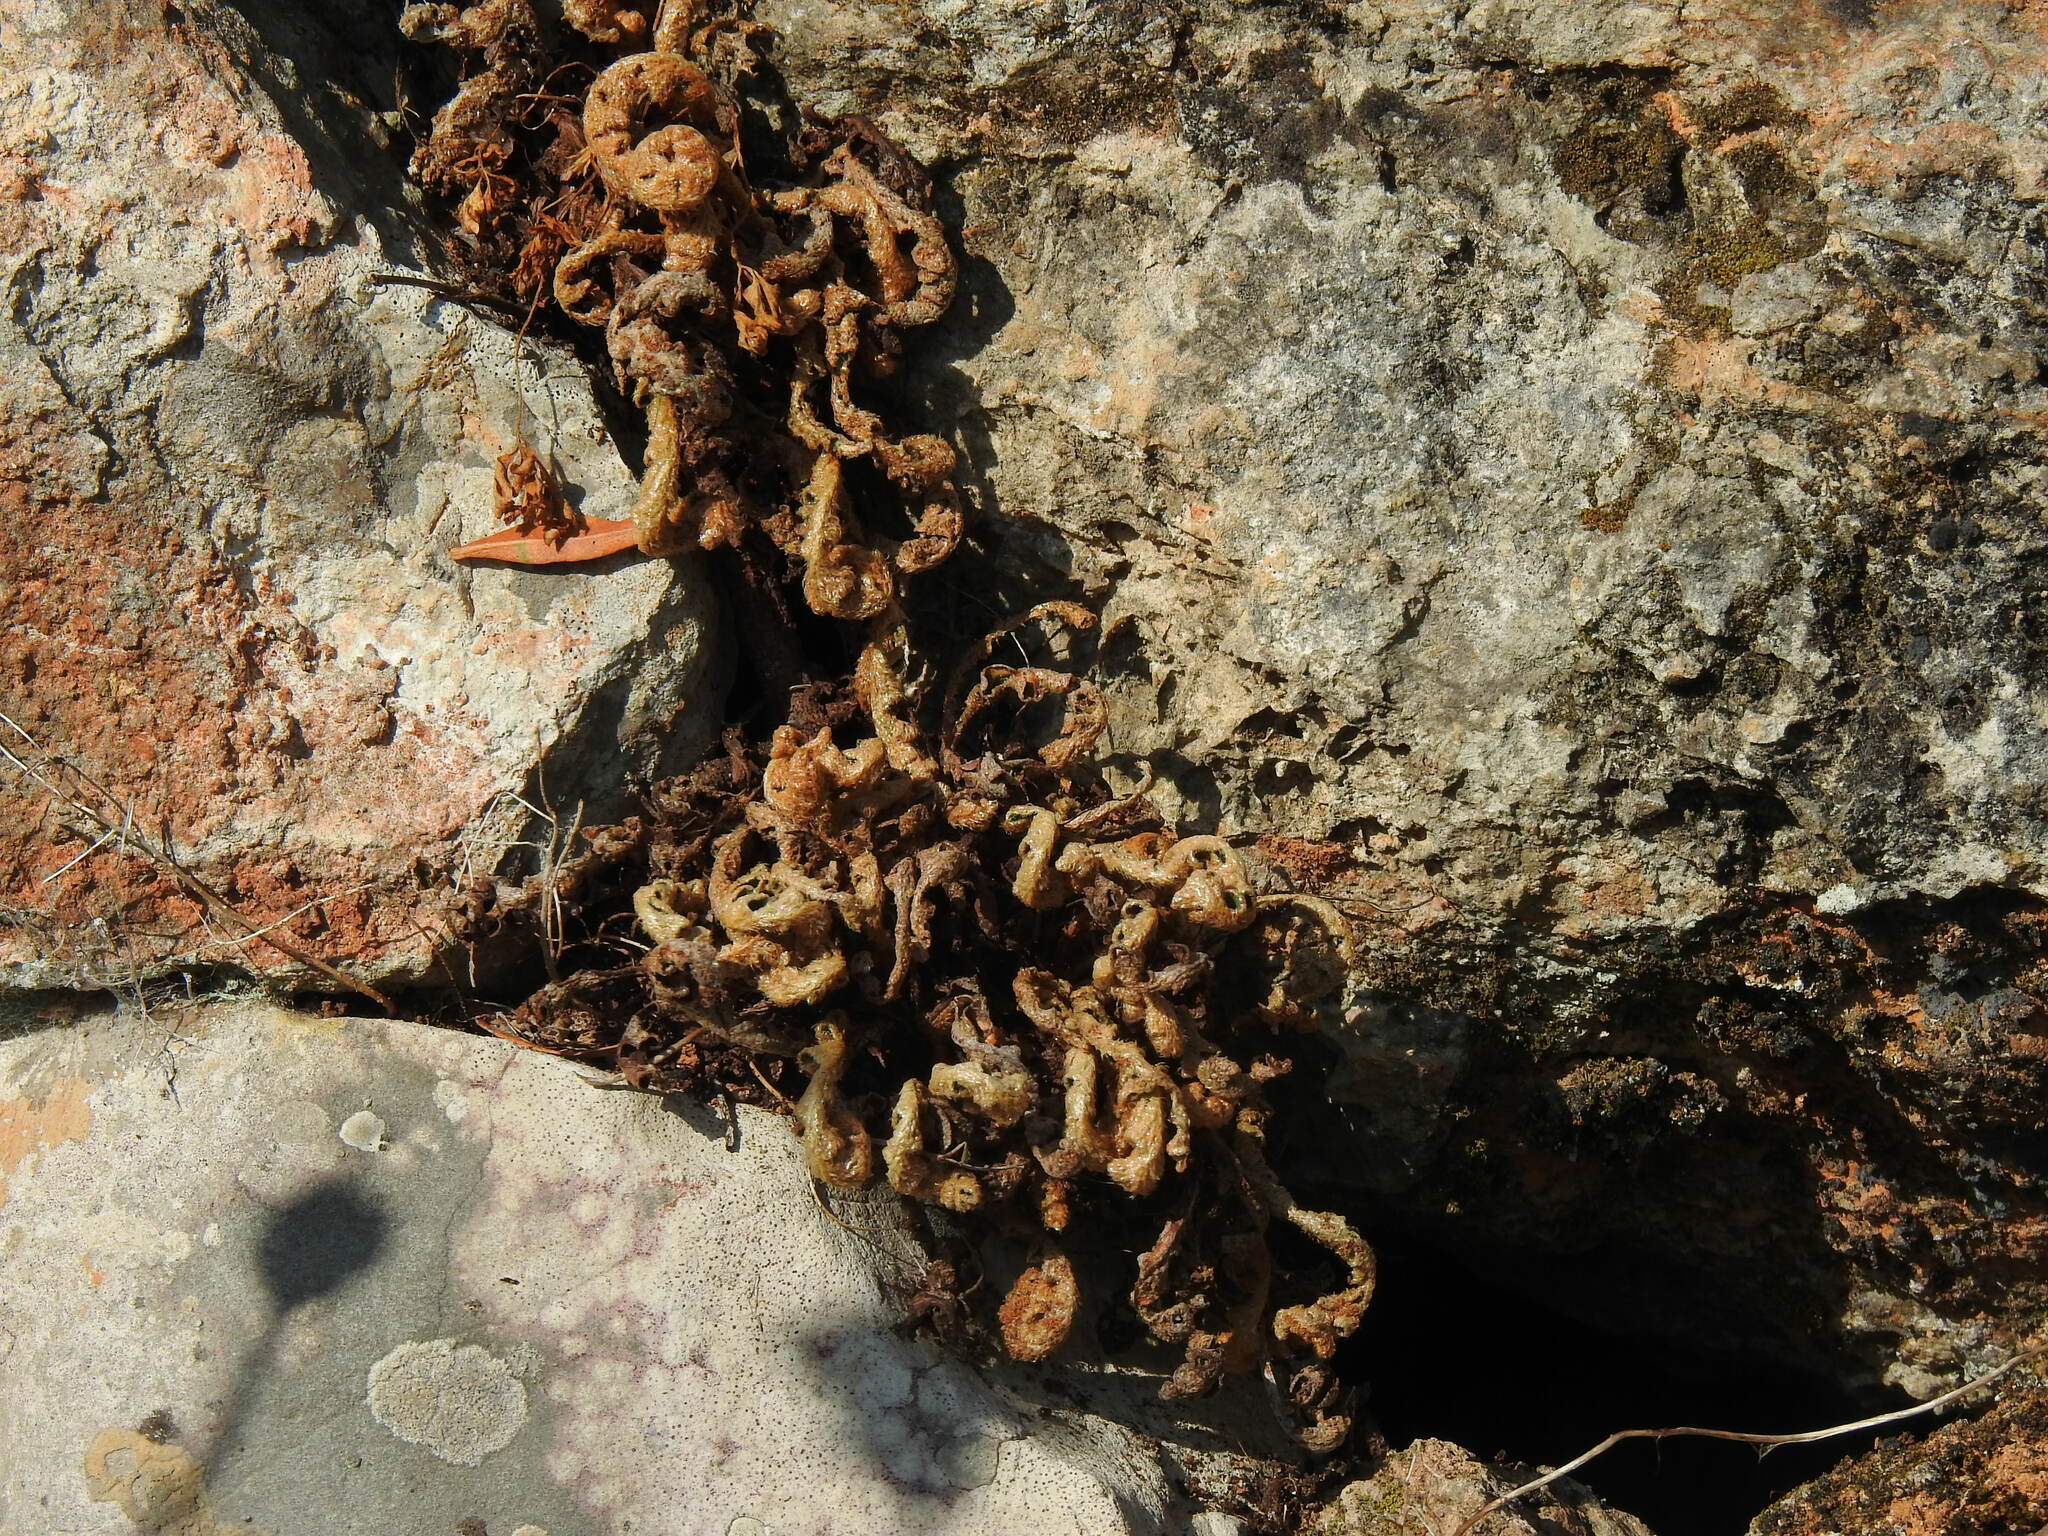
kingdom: Plantae
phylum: Tracheophyta
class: Polypodiopsida
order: Polypodiales
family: Aspleniaceae
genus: Asplenium
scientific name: Asplenium ceterach
